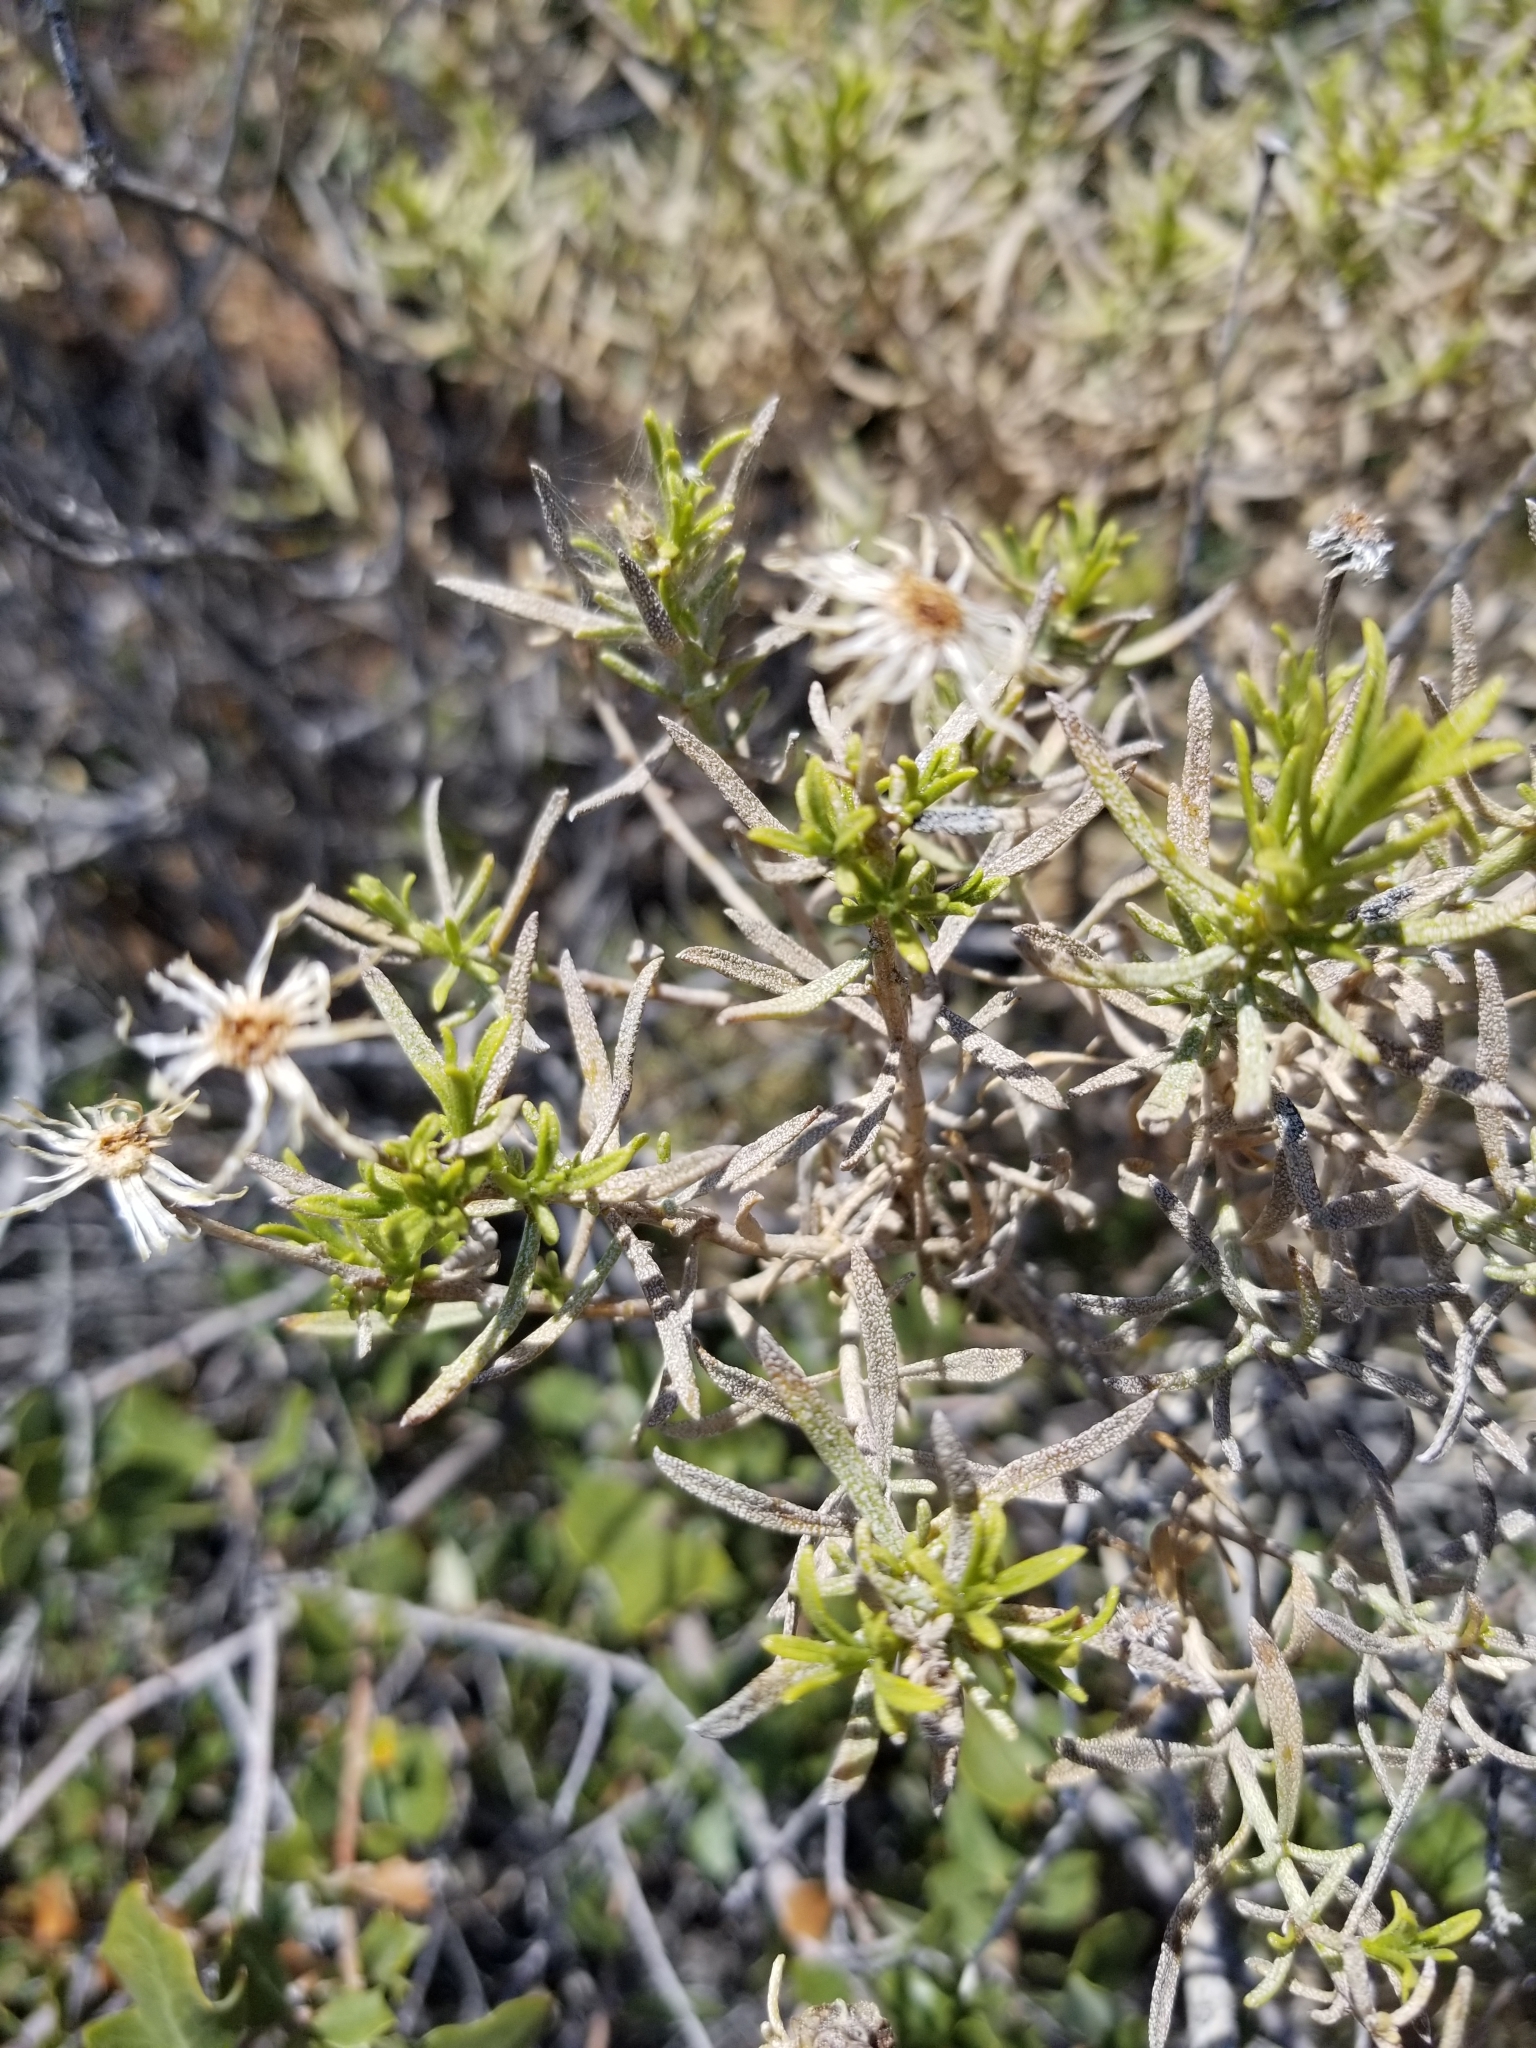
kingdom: Plantae
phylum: Tracheophyta
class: Magnoliopsida
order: Asterales
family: Asteraceae
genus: Ericameria
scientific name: Ericameria linearifolia
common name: Interior goldenbush
